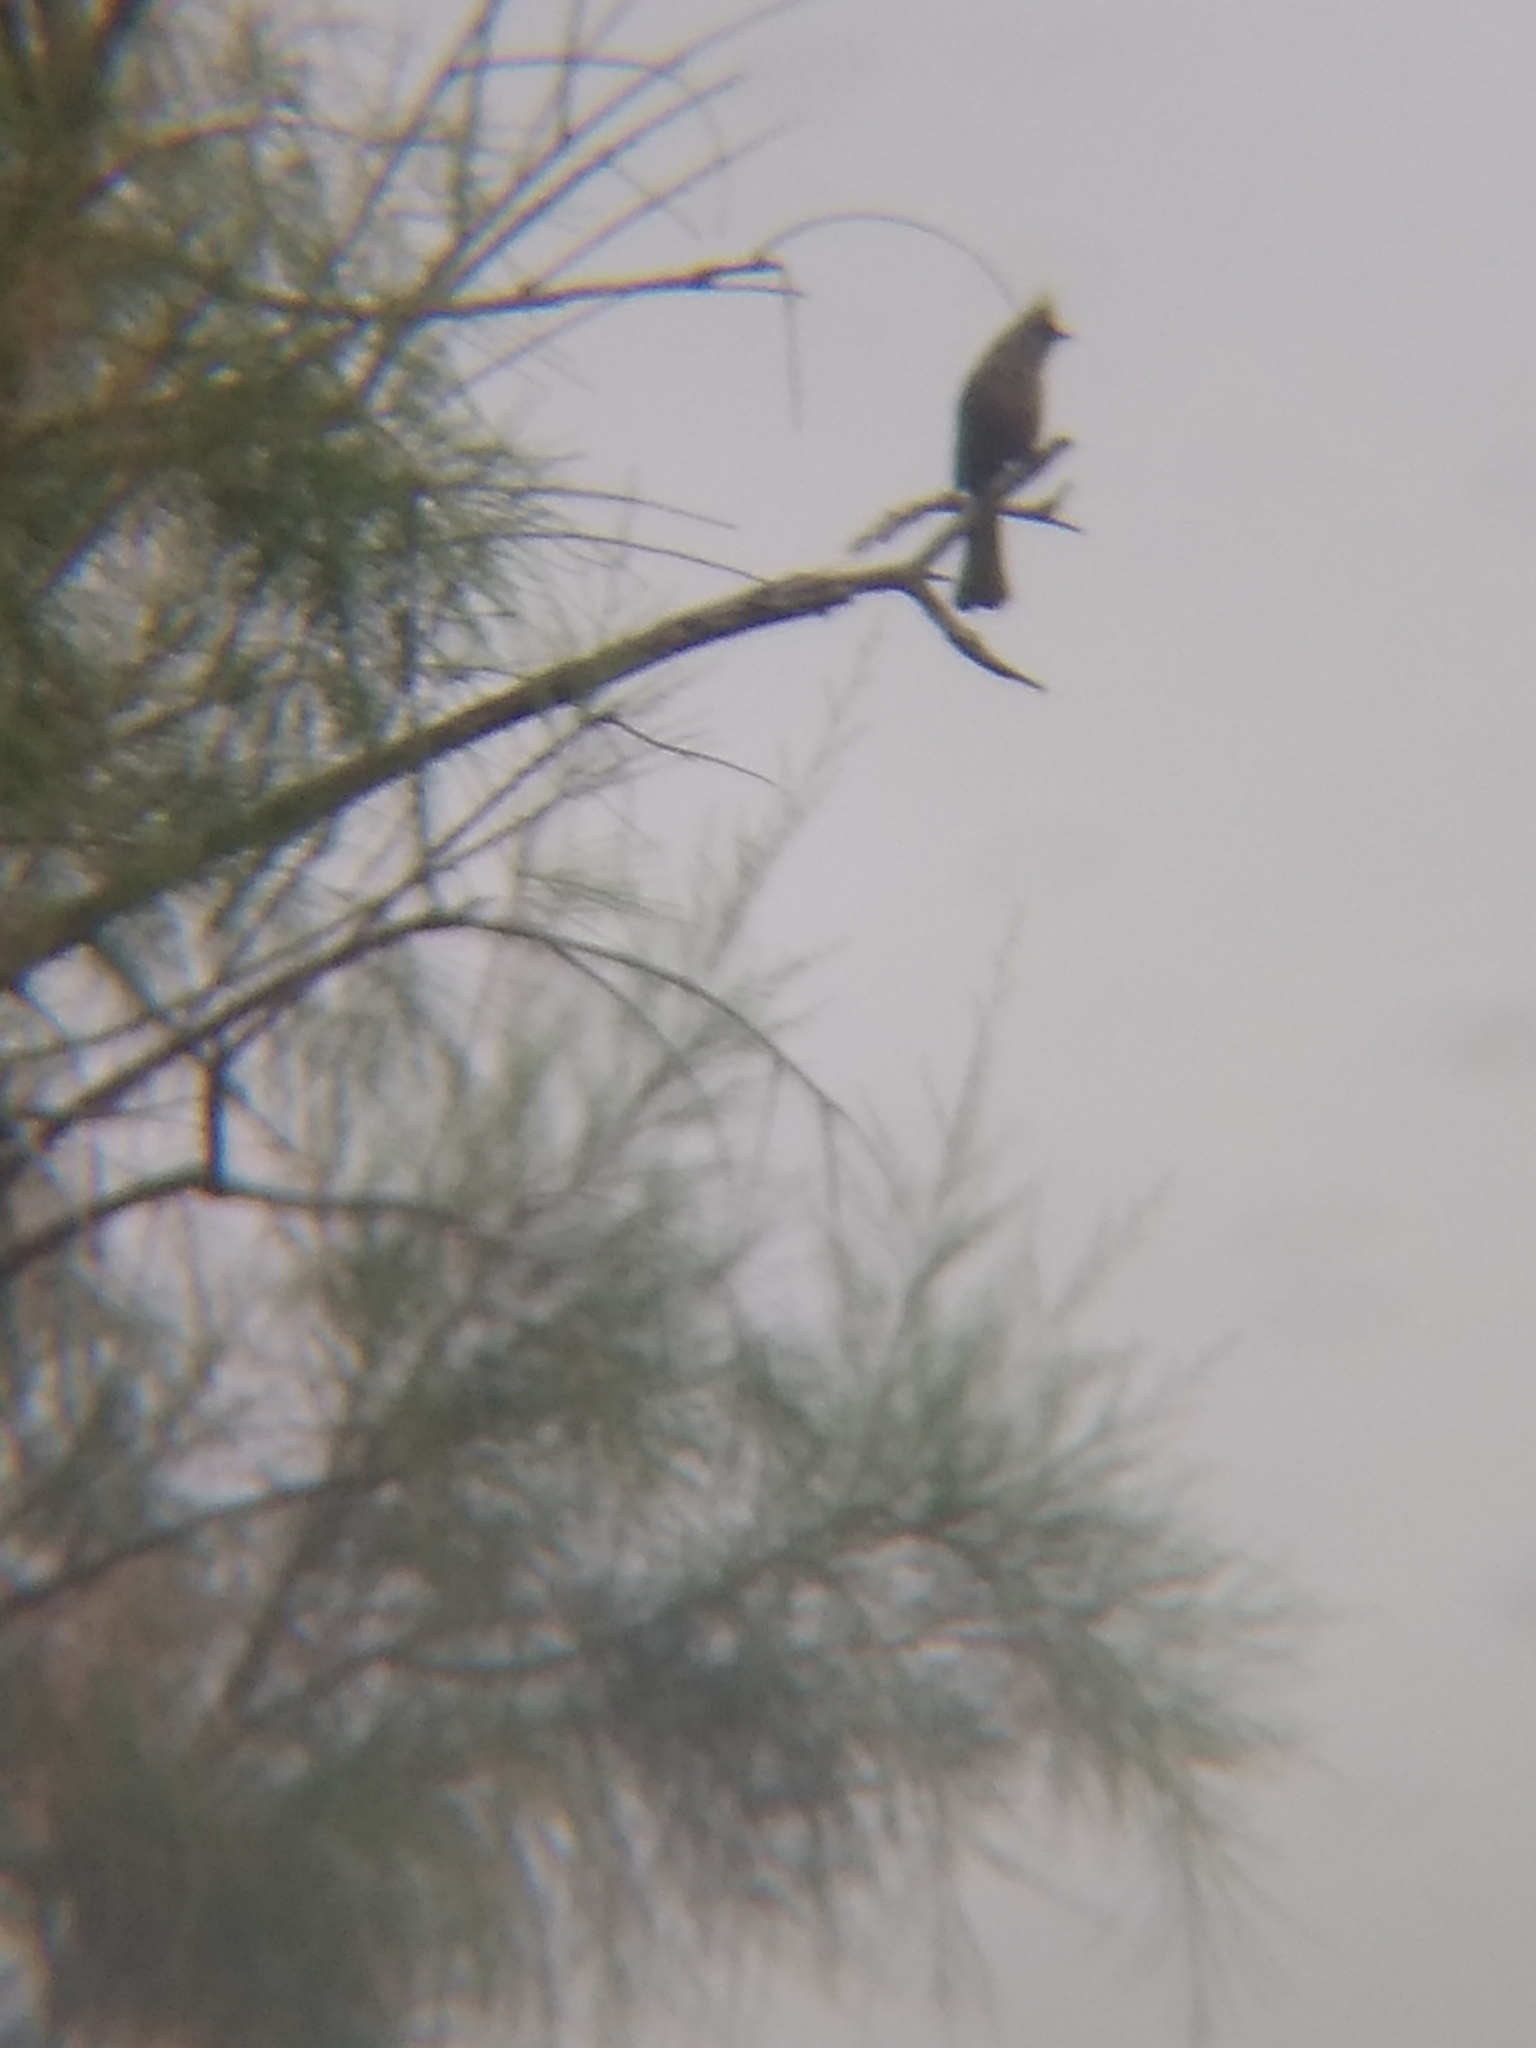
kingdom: Animalia
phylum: Chordata
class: Aves
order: Passeriformes
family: Ptilogonatidae
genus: Phainopepla
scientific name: Phainopepla nitens
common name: Phainopepla
